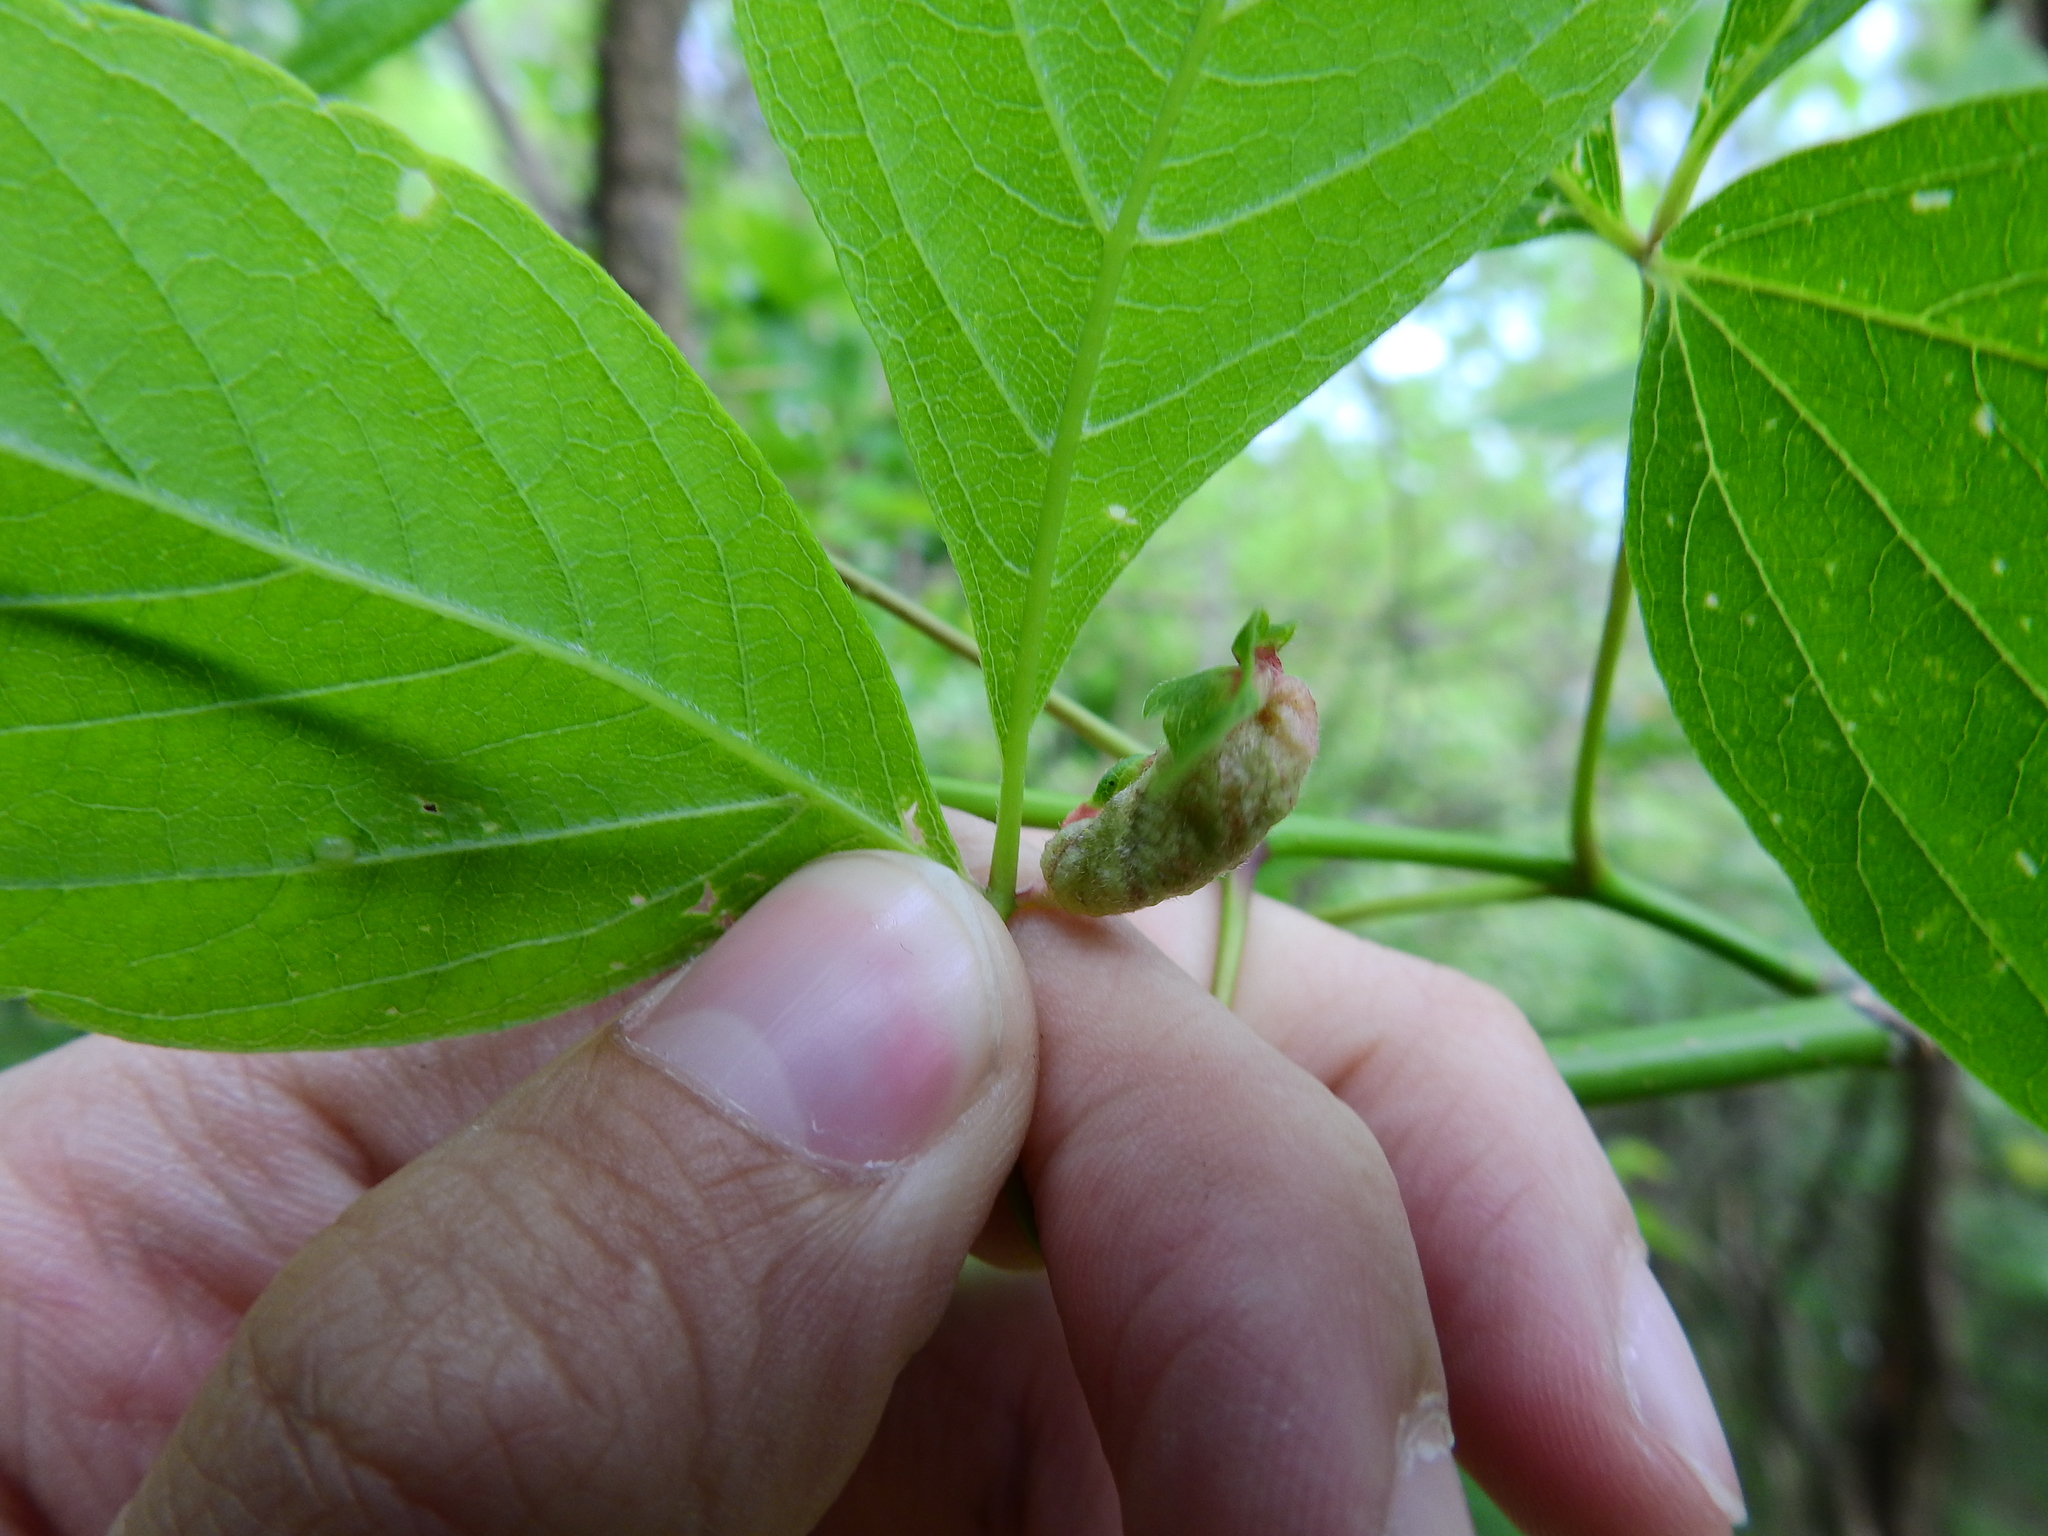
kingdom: Animalia
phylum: Arthropoda
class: Insecta
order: Diptera
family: Cecidomyiidae
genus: Contarinia
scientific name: Contarinia negundinis
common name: Boxelder budgall midge
